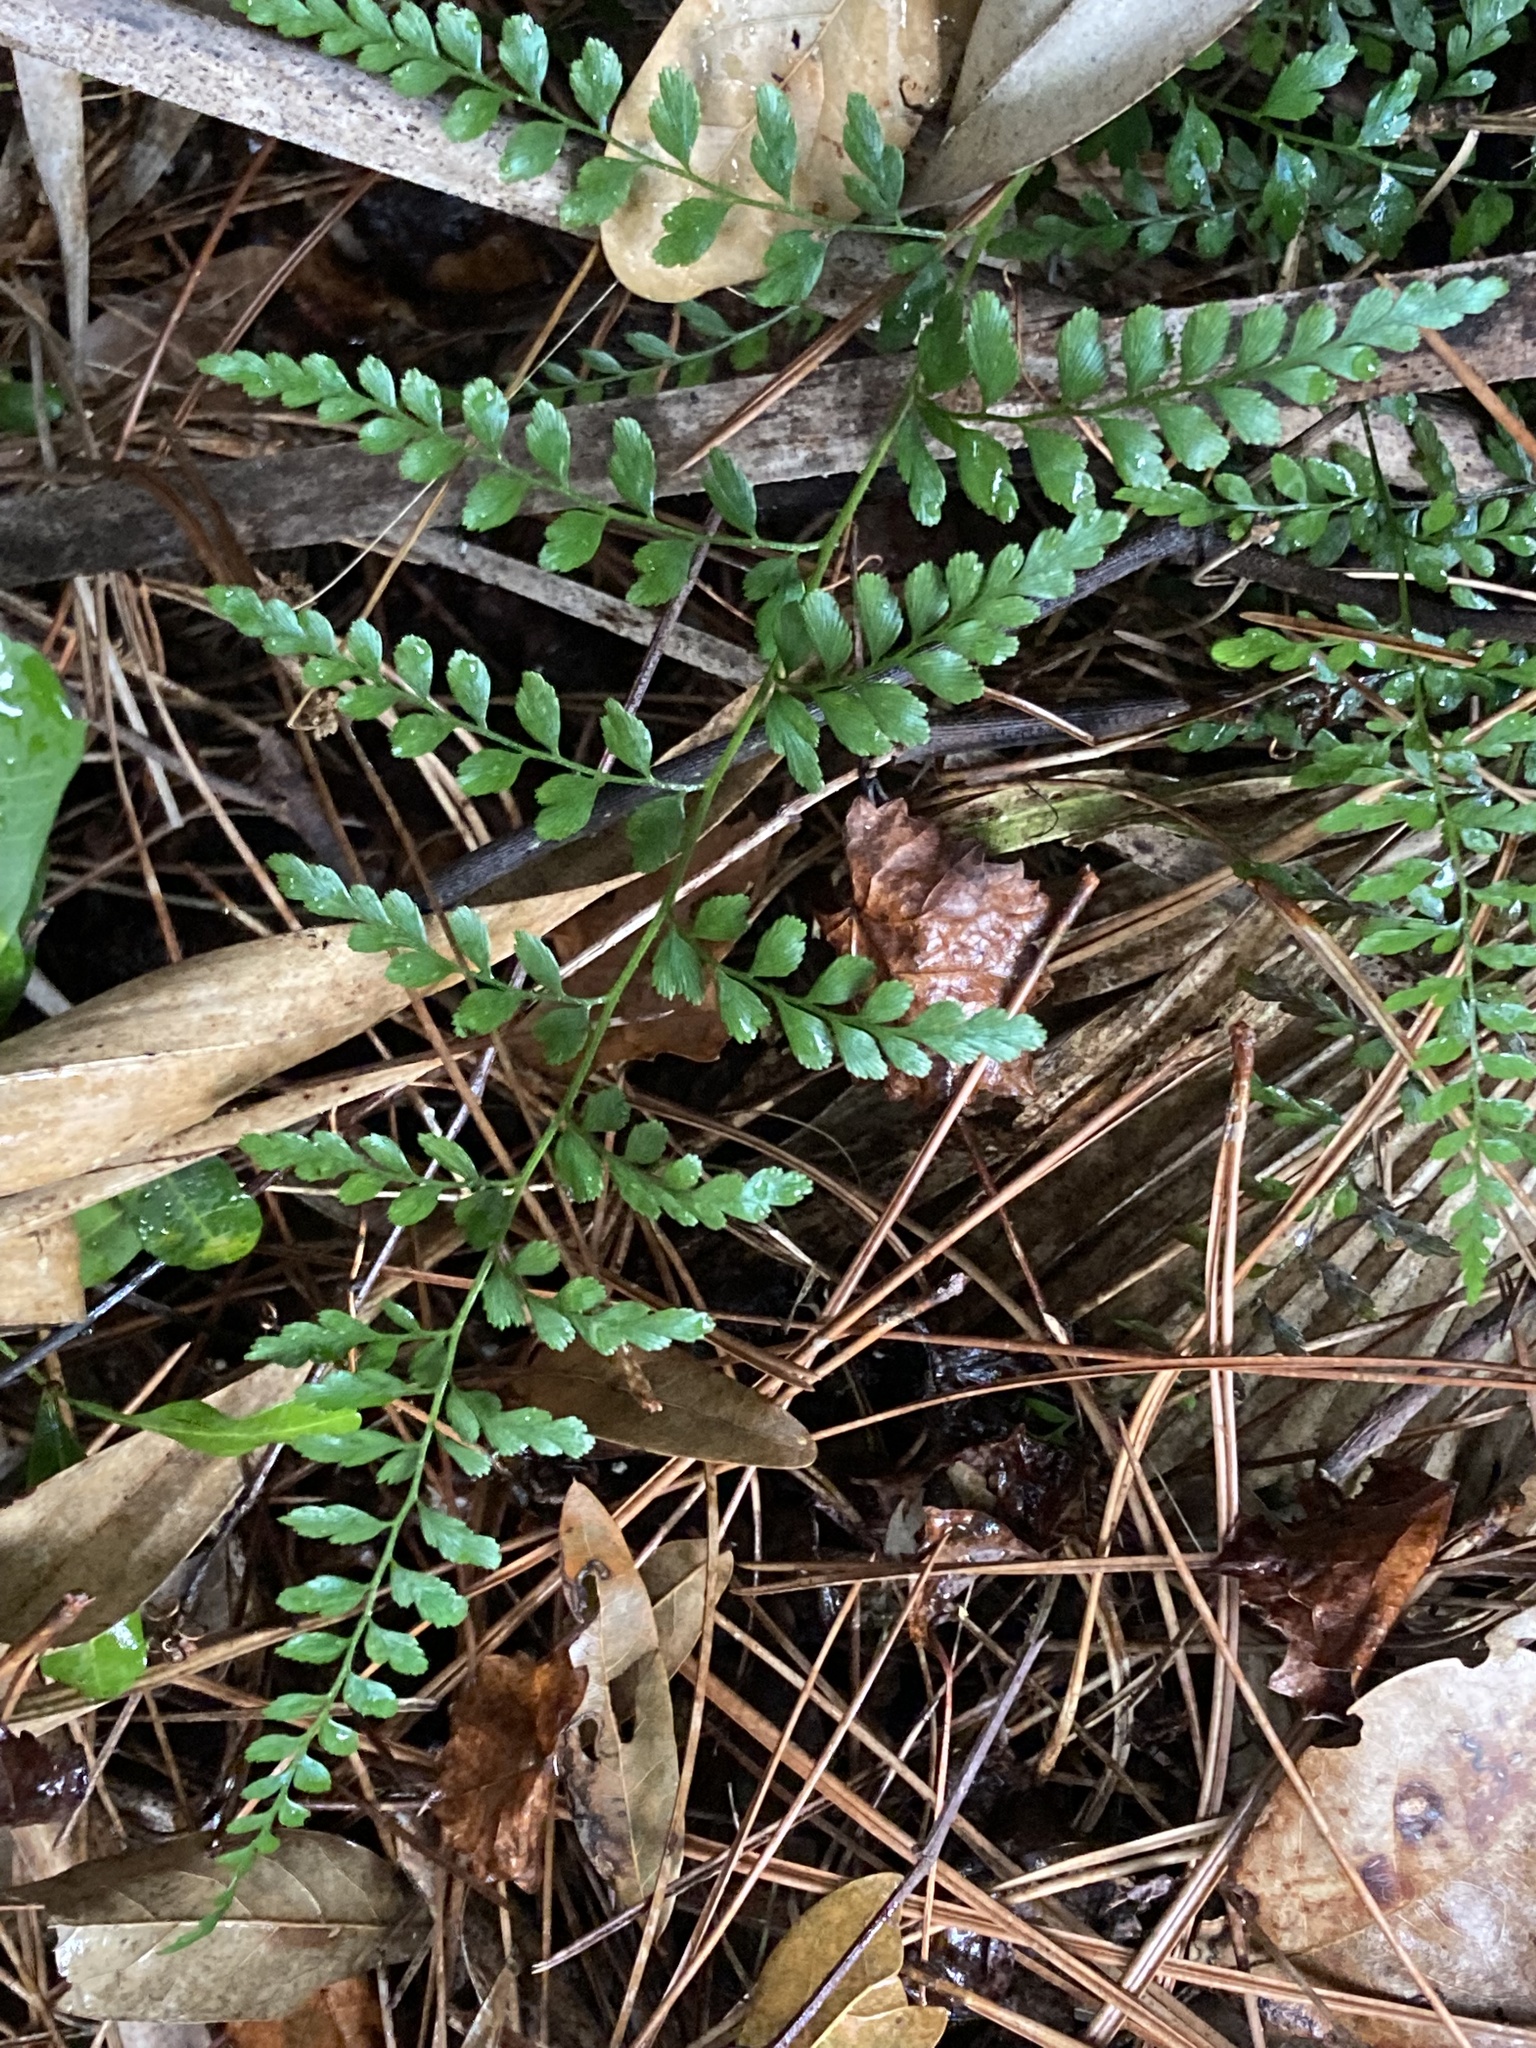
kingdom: Plantae
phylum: Tracheophyta
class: Polypodiopsida
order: Schizaeales
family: Anemiaceae
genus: Anemia
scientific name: Anemia adiantifolia
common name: Pine fern
